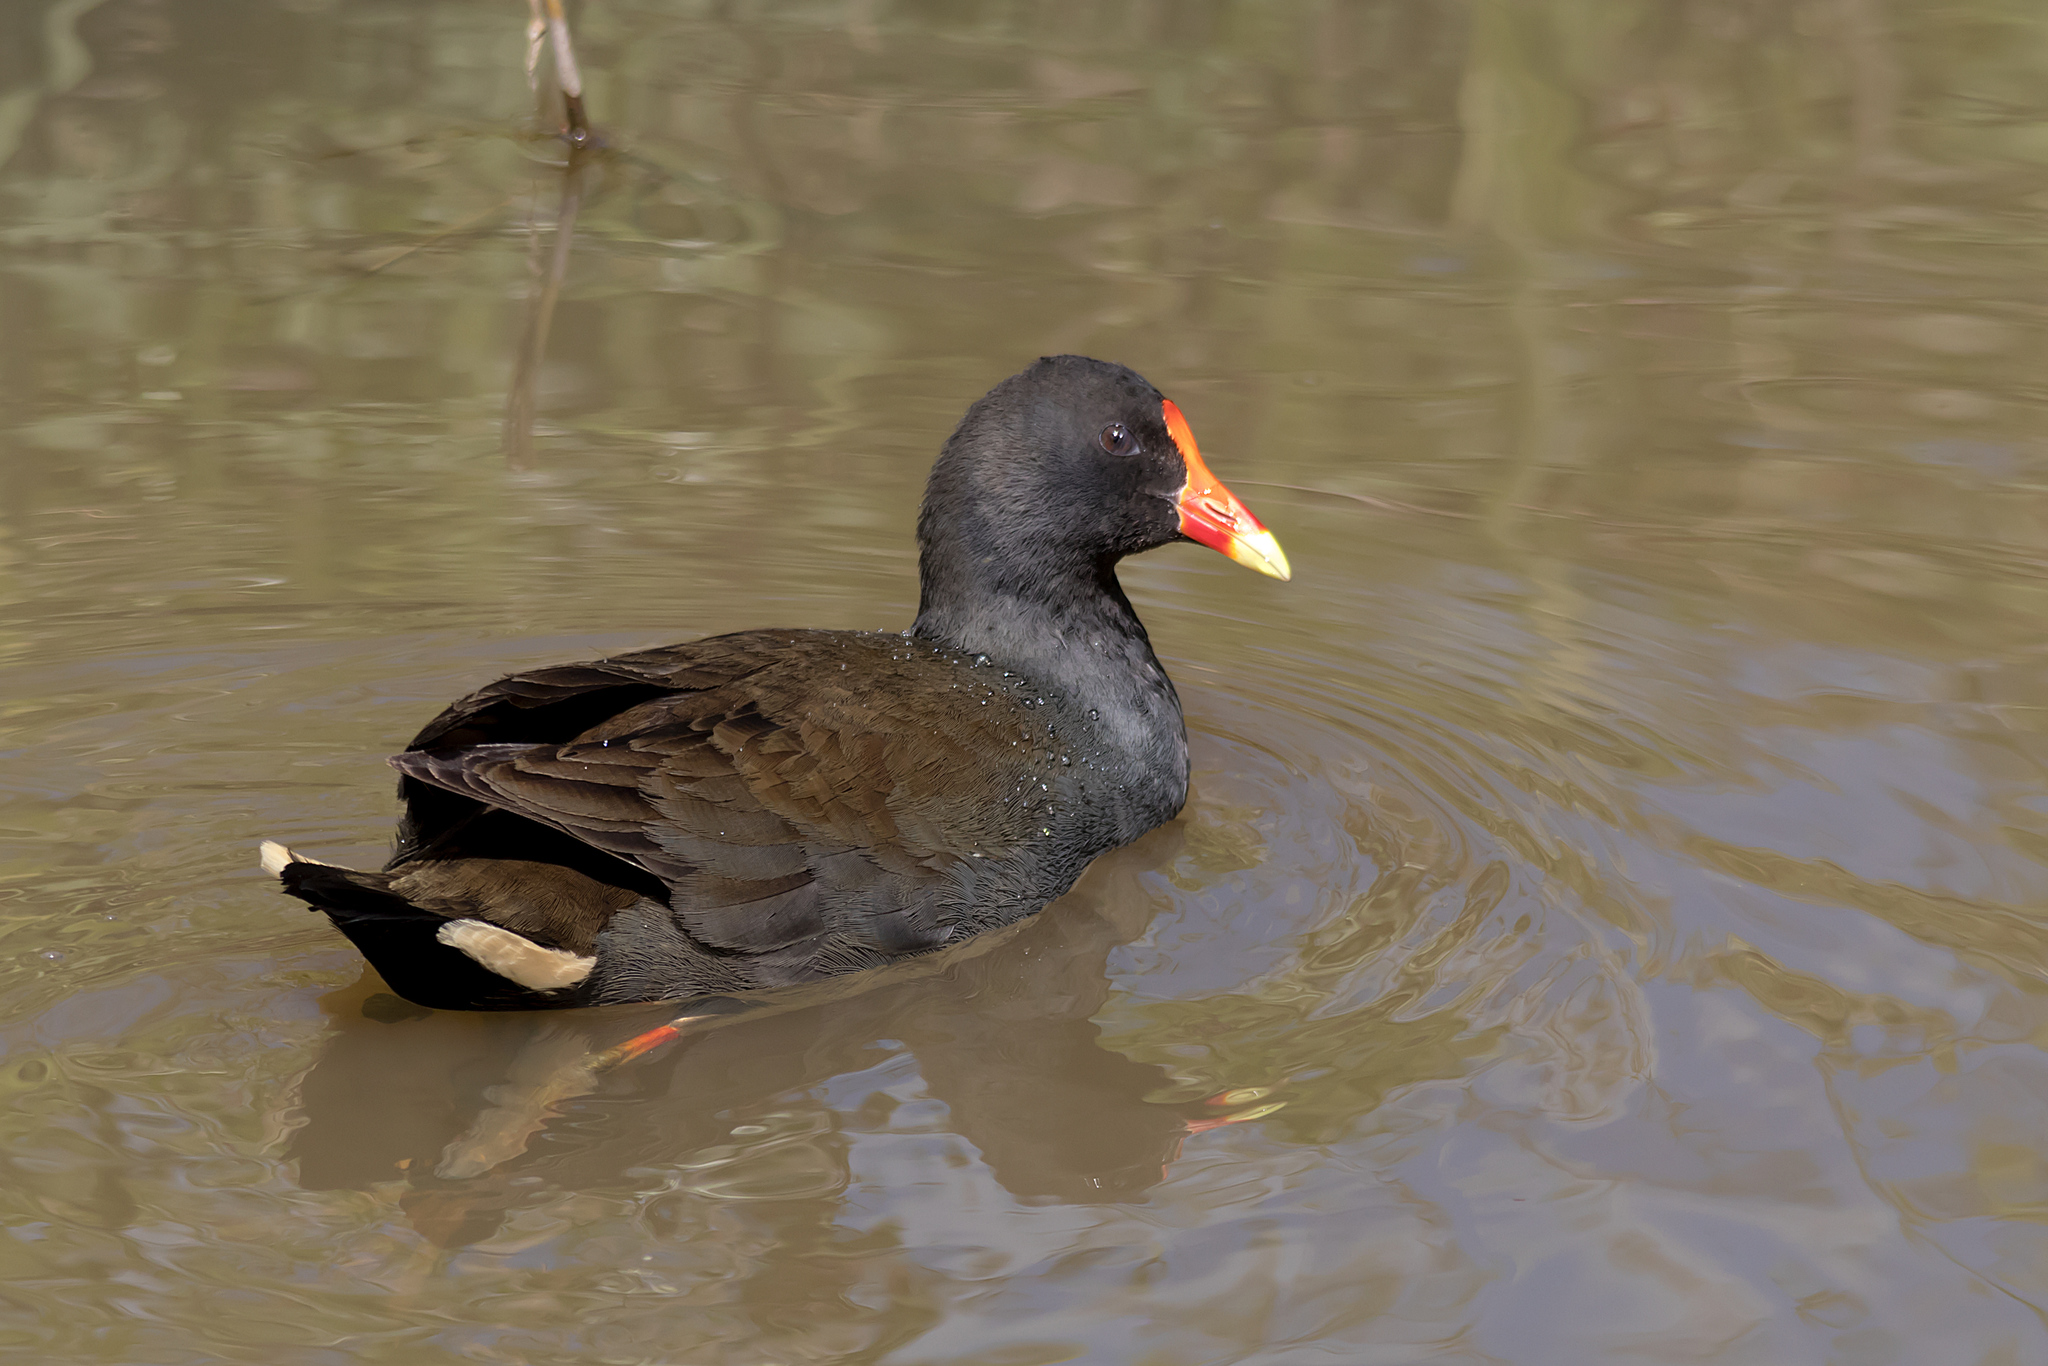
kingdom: Animalia
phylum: Chordata
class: Aves
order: Gruiformes
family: Rallidae
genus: Gallinula
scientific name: Gallinula tenebrosa
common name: Dusky moorhen
